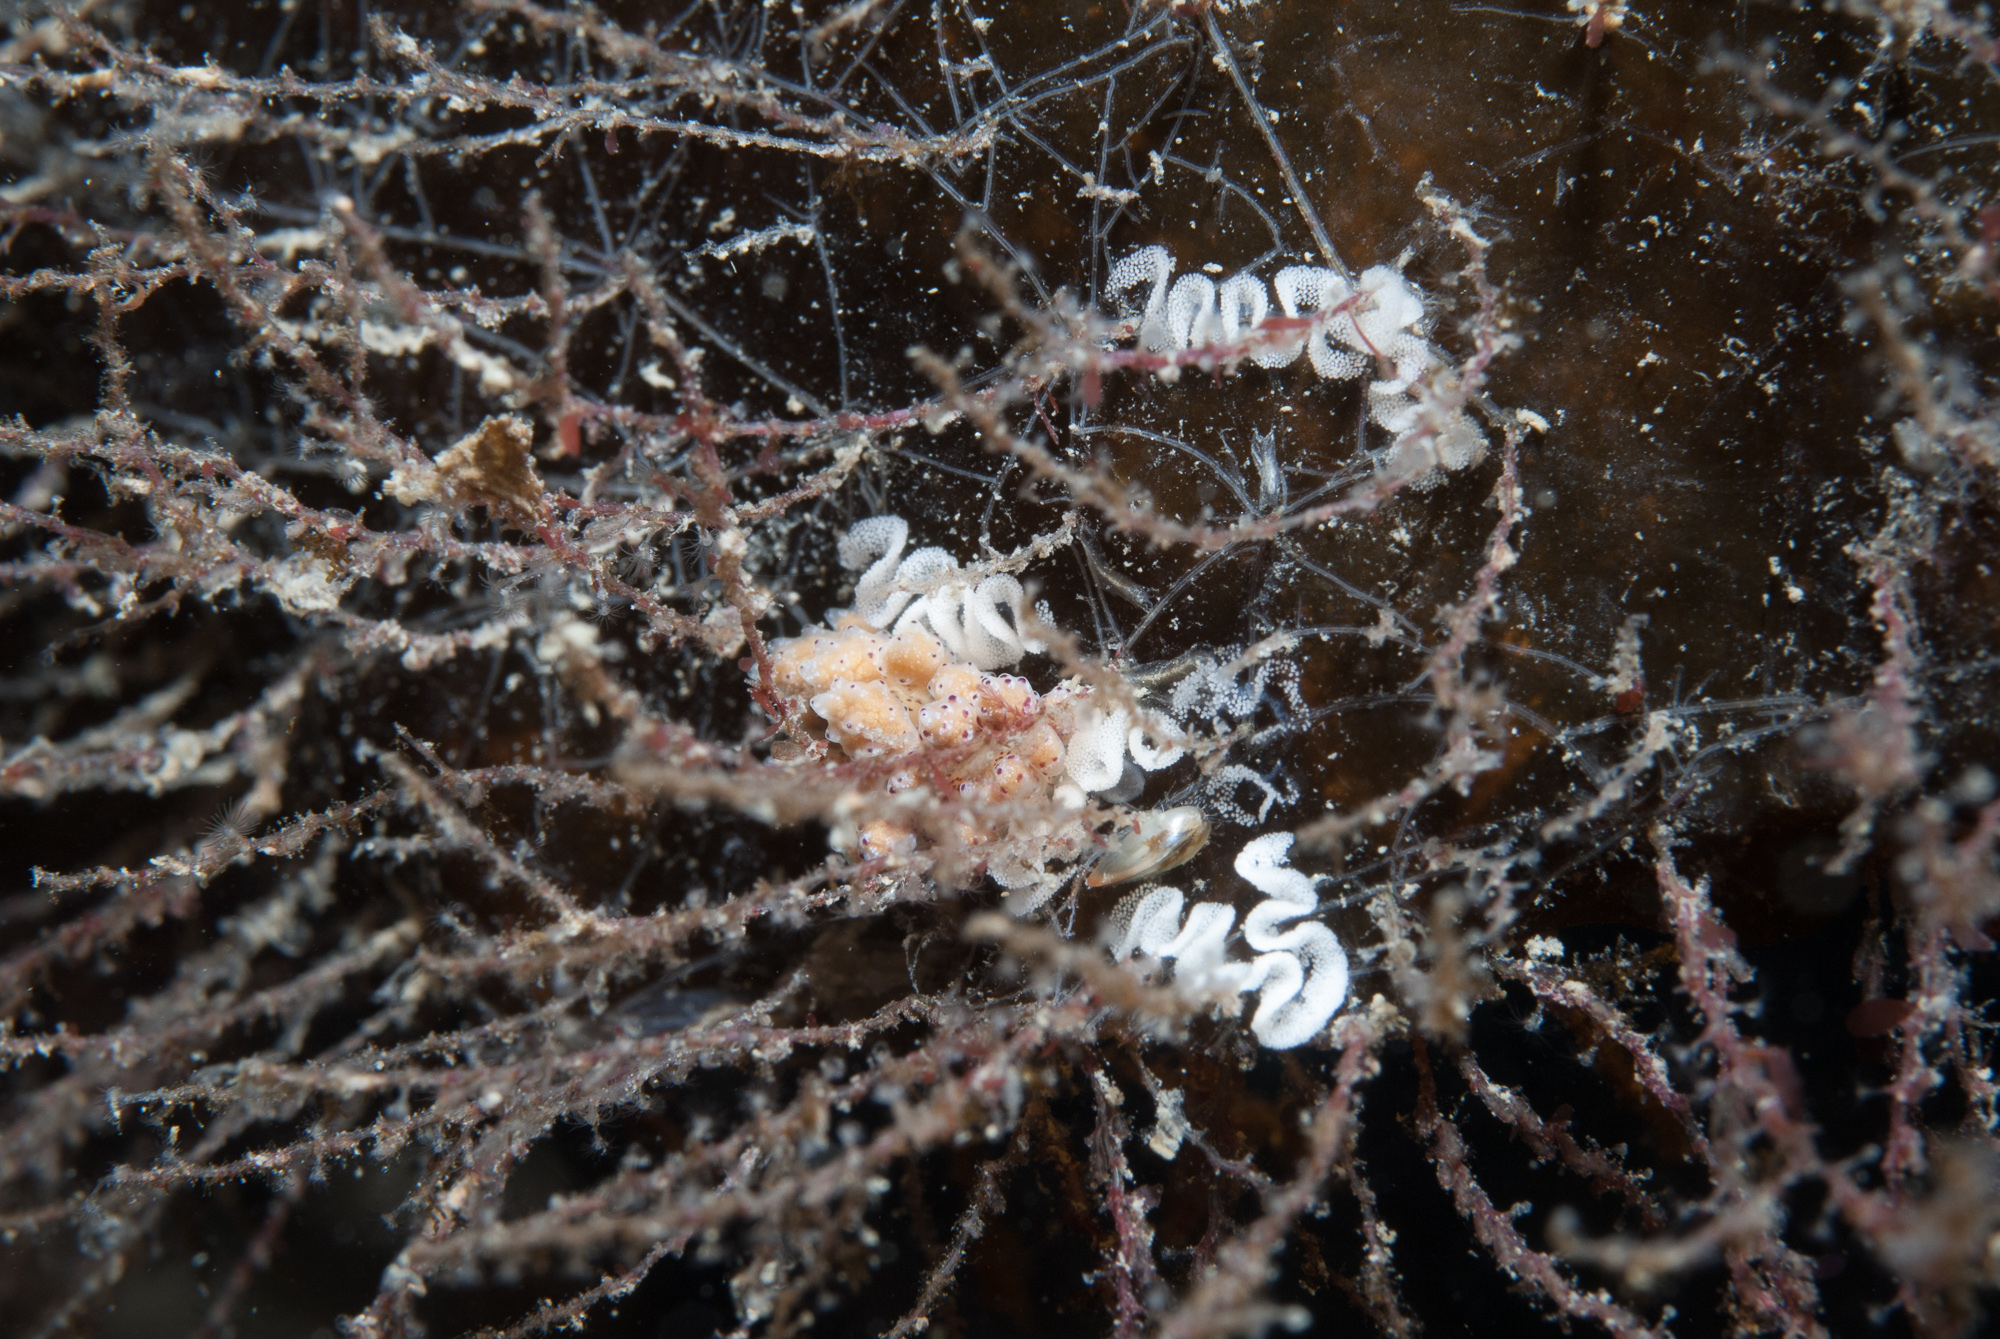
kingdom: Animalia
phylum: Mollusca
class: Gastropoda
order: Nudibranchia
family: Dotidae
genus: Doto
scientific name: Doto coronata
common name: Coronate doto
